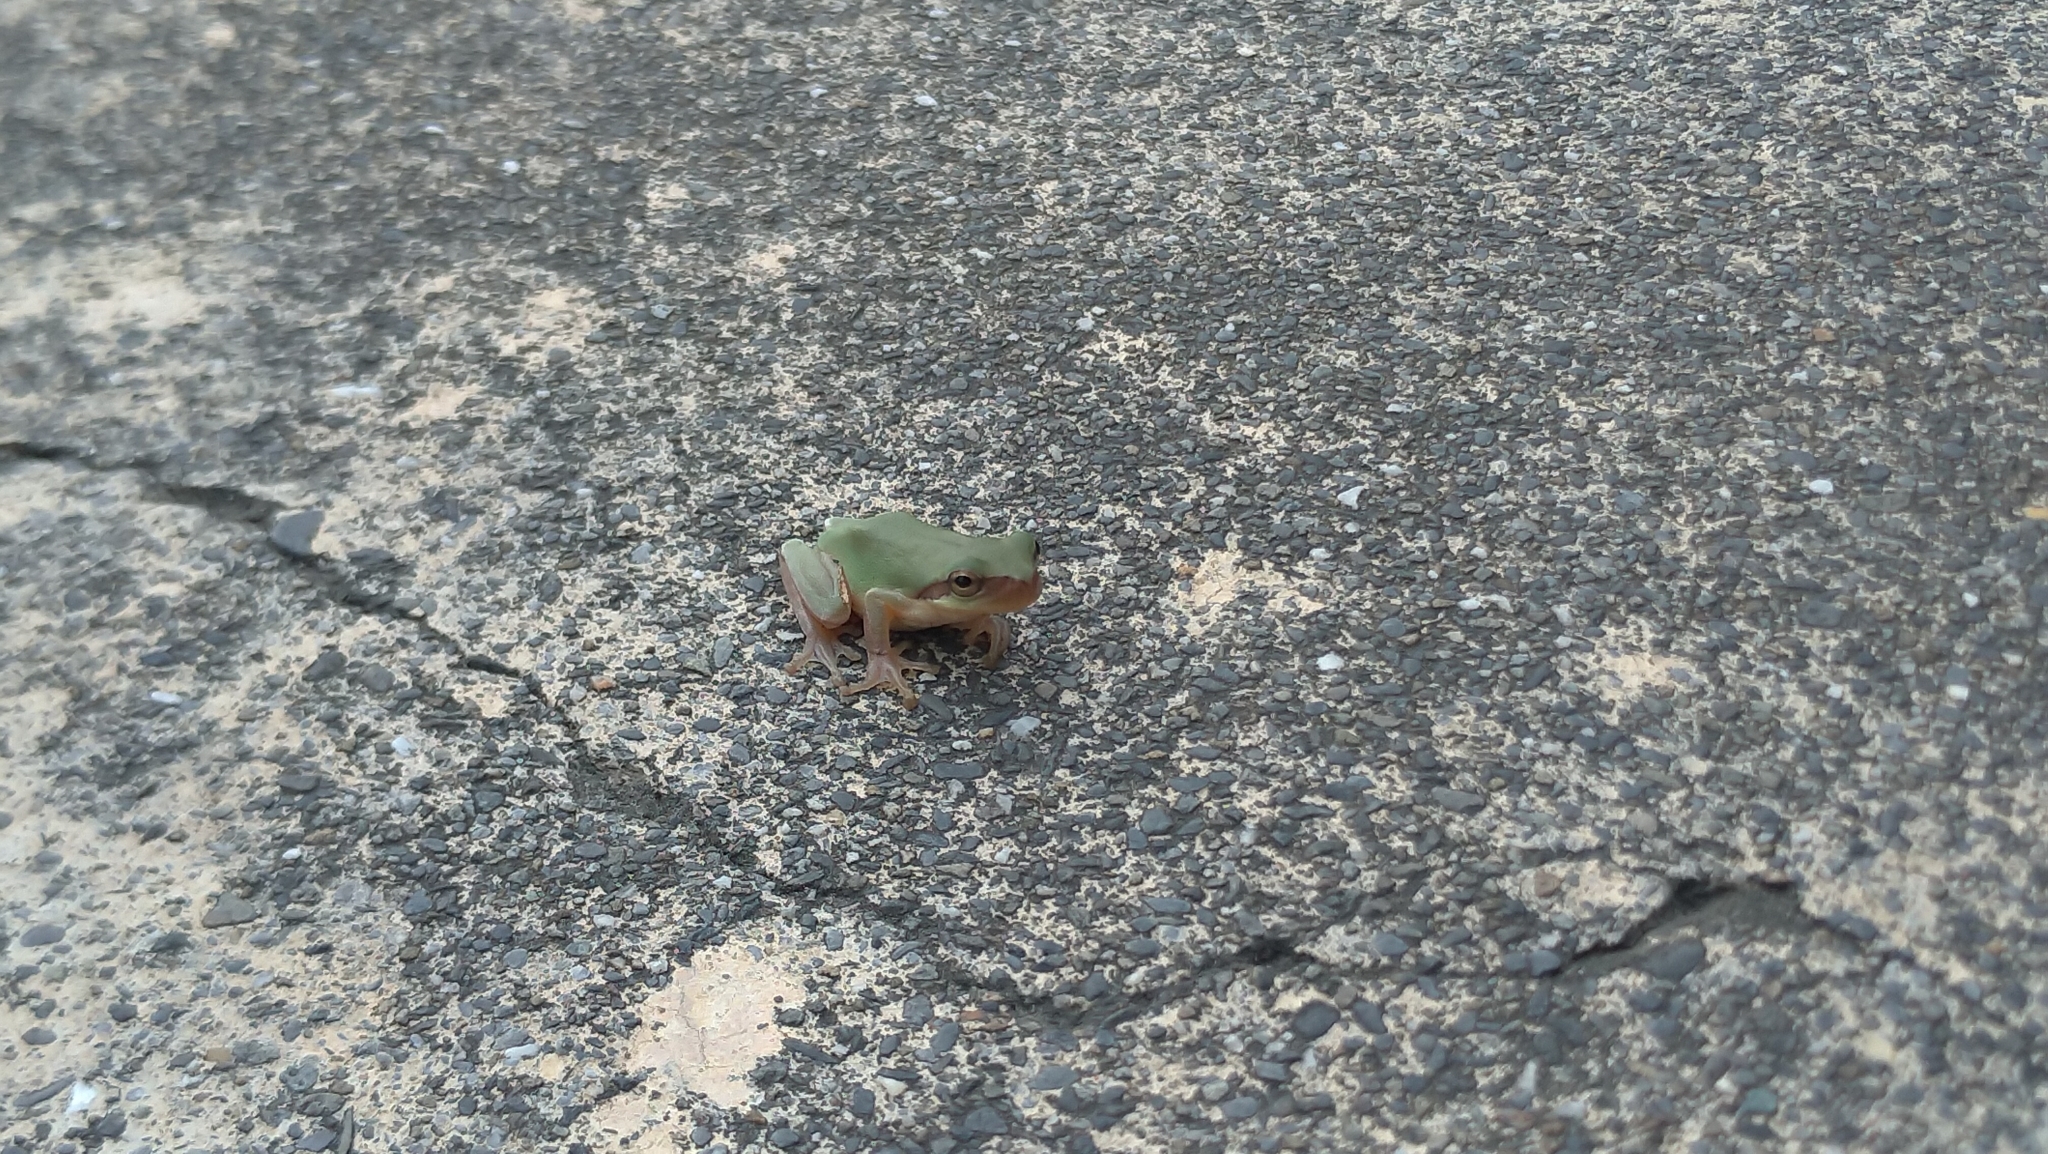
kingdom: Animalia
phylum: Chordata
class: Amphibia
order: Anura
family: Hylidae
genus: Hyla
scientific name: Hyla chinensis
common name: Common chinese treefrog
